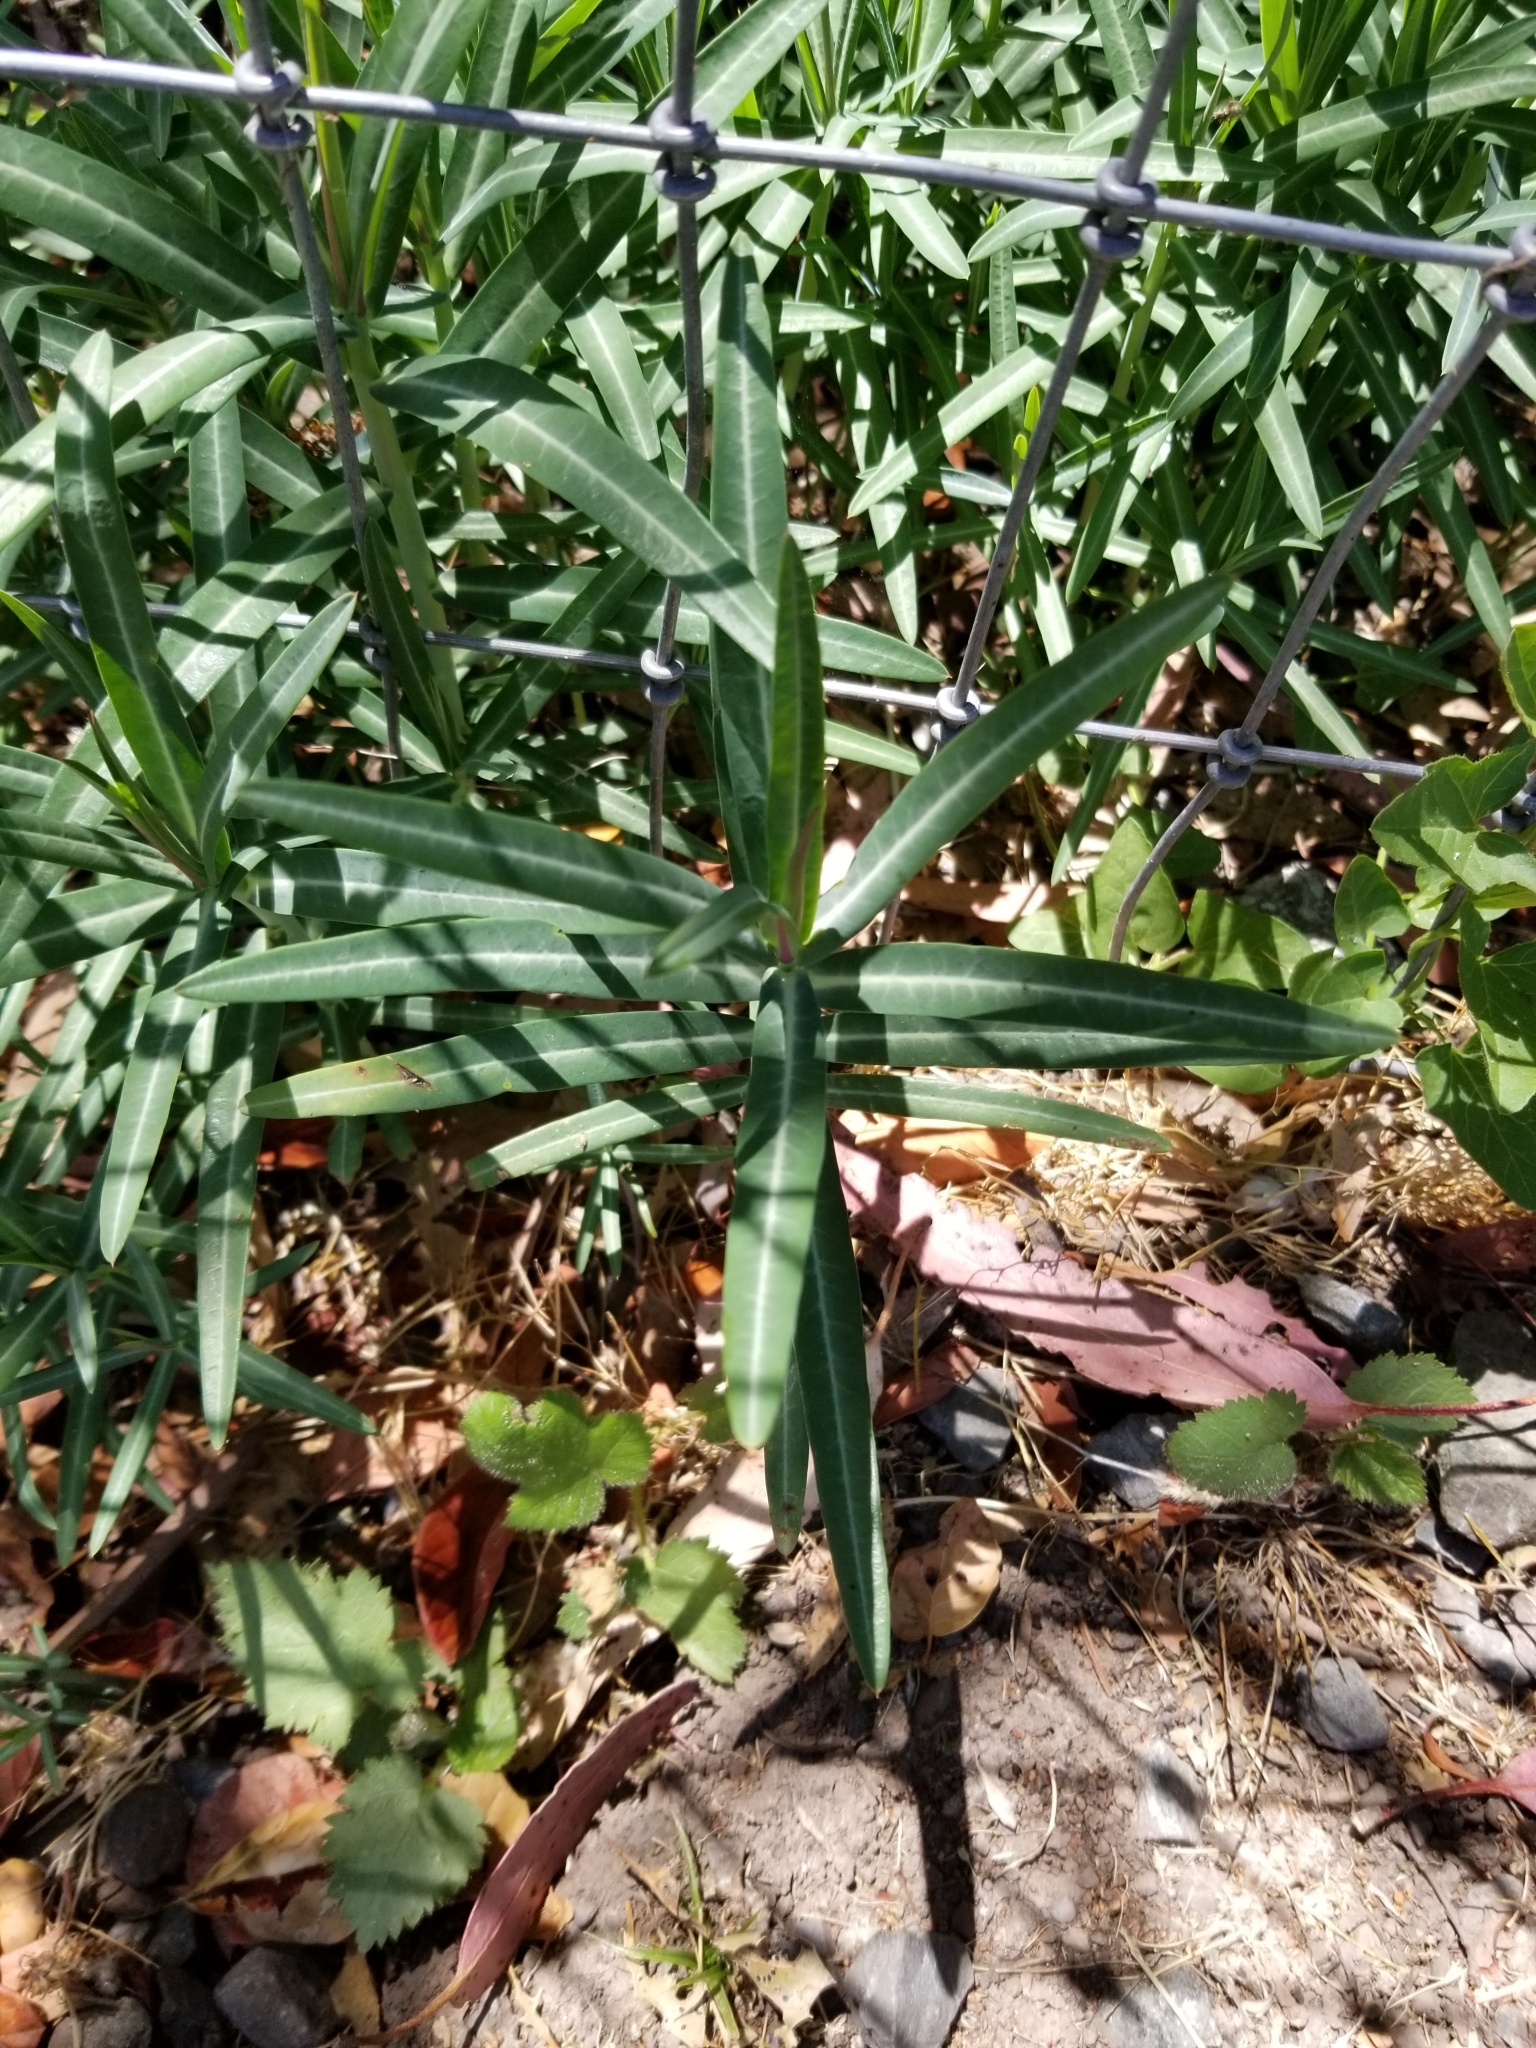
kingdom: Plantae
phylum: Tracheophyta
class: Magnoliopsida
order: Malpighiales
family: Euphorbiaceae
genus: Euphorbia
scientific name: Euphorbia lathyris
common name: Caper spurge
